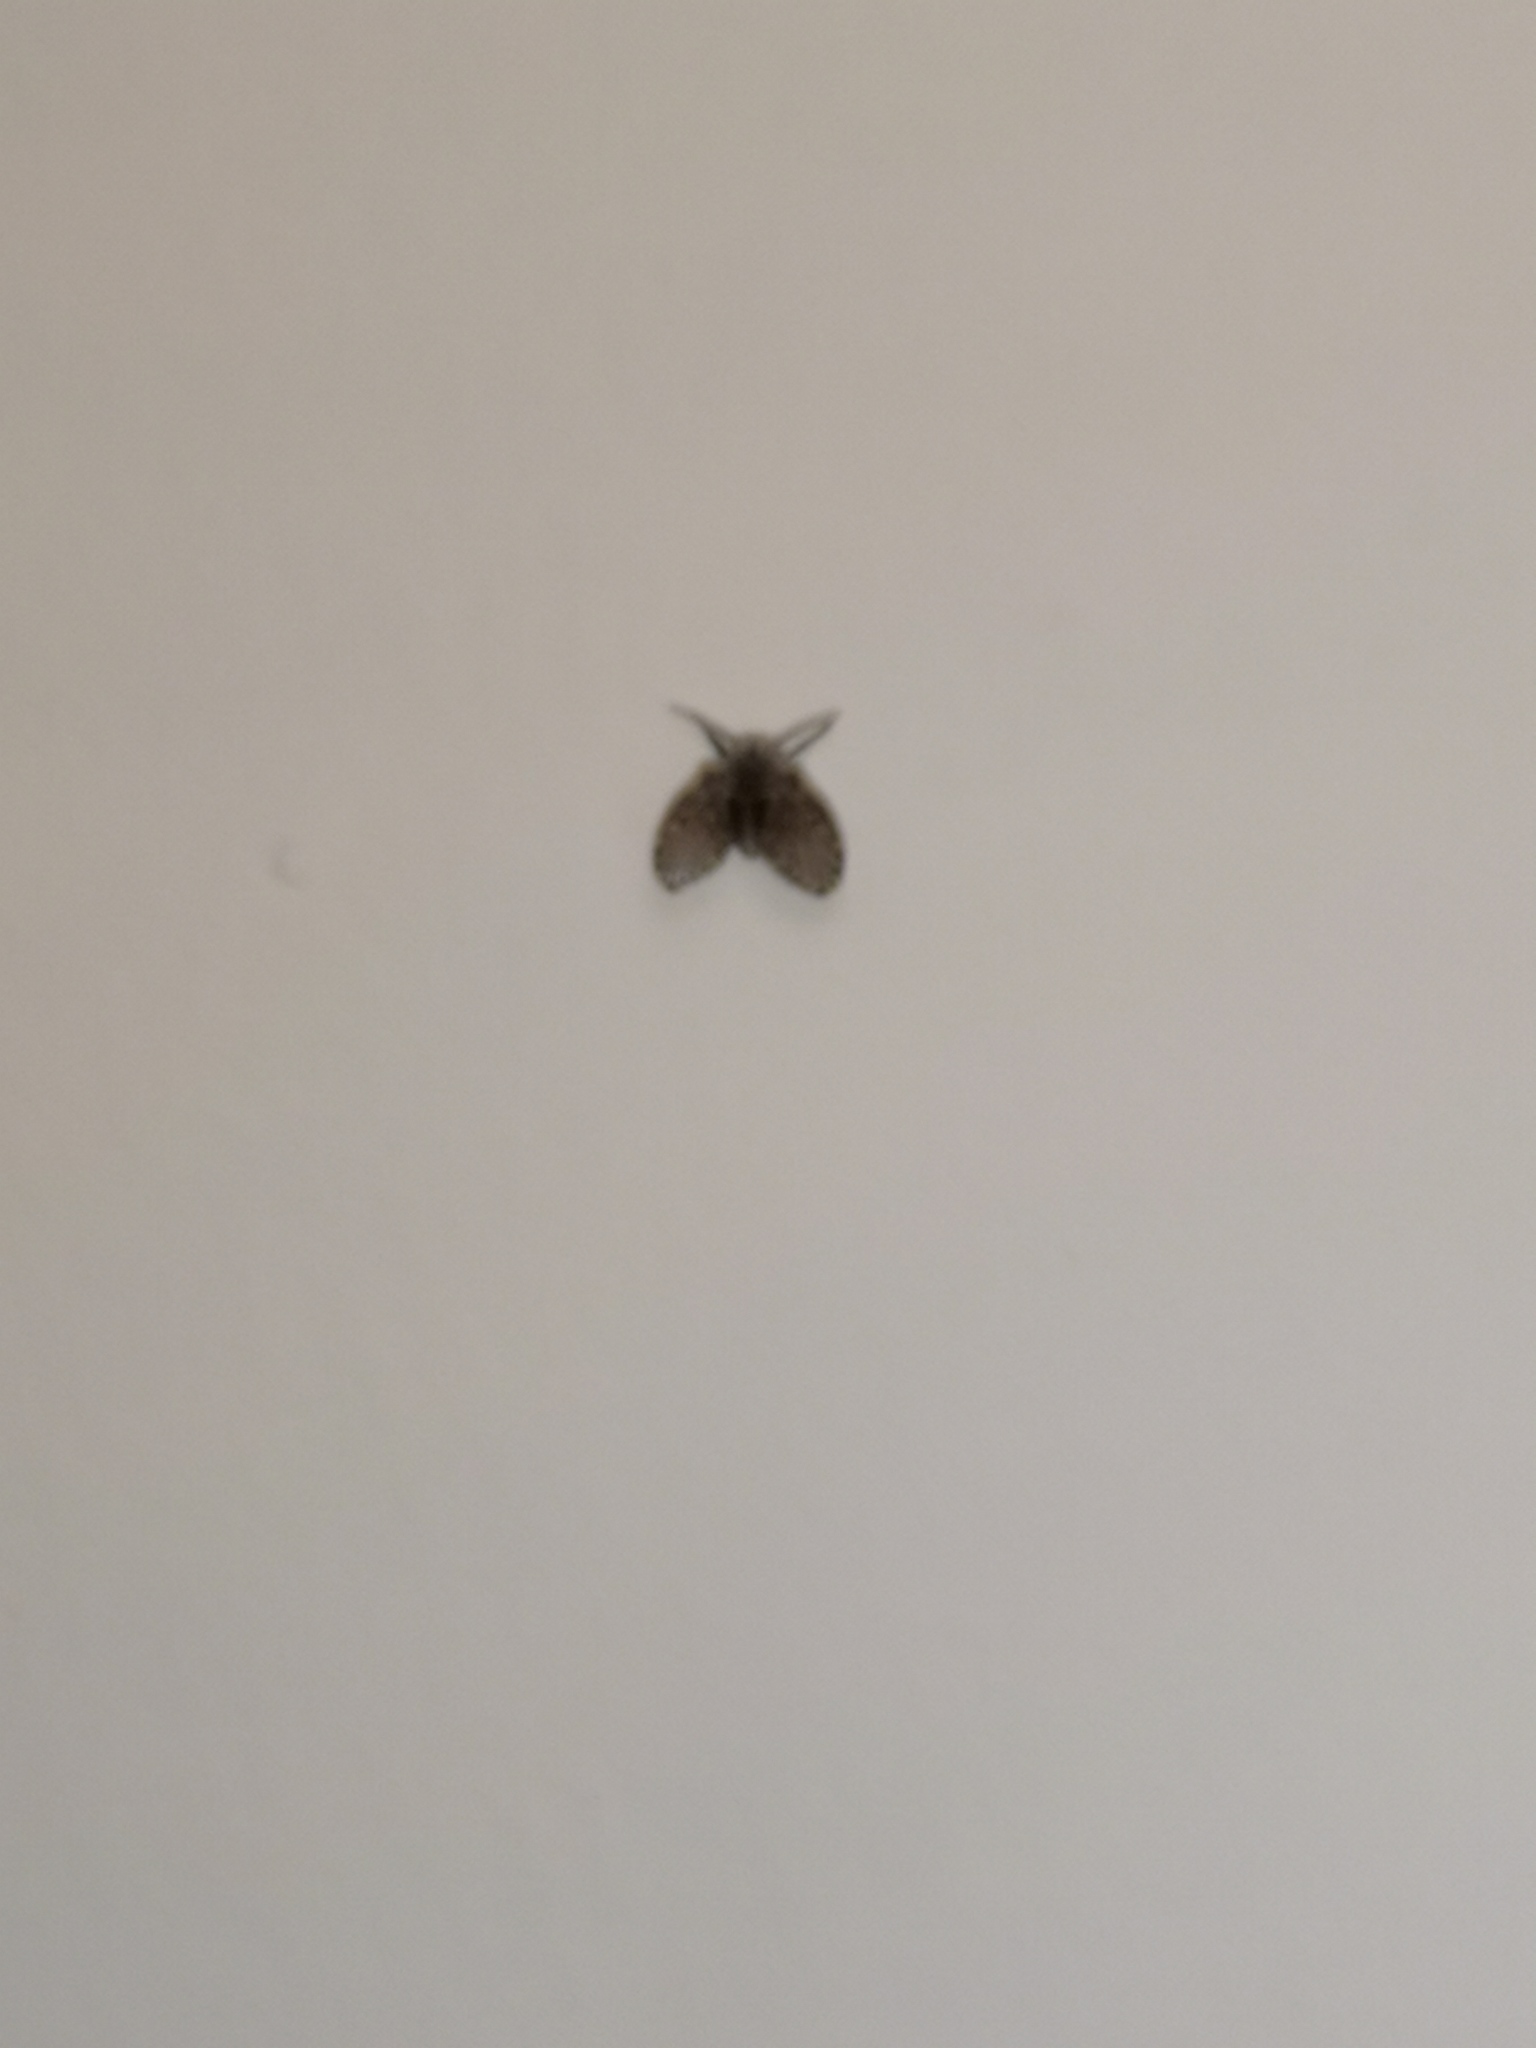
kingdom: Animalia
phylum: Arthropoda
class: Insecta
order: Diptera
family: Psychodidae
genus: Clogmia
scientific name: Clogmia albipunctatus
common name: White-spotted moth fly
